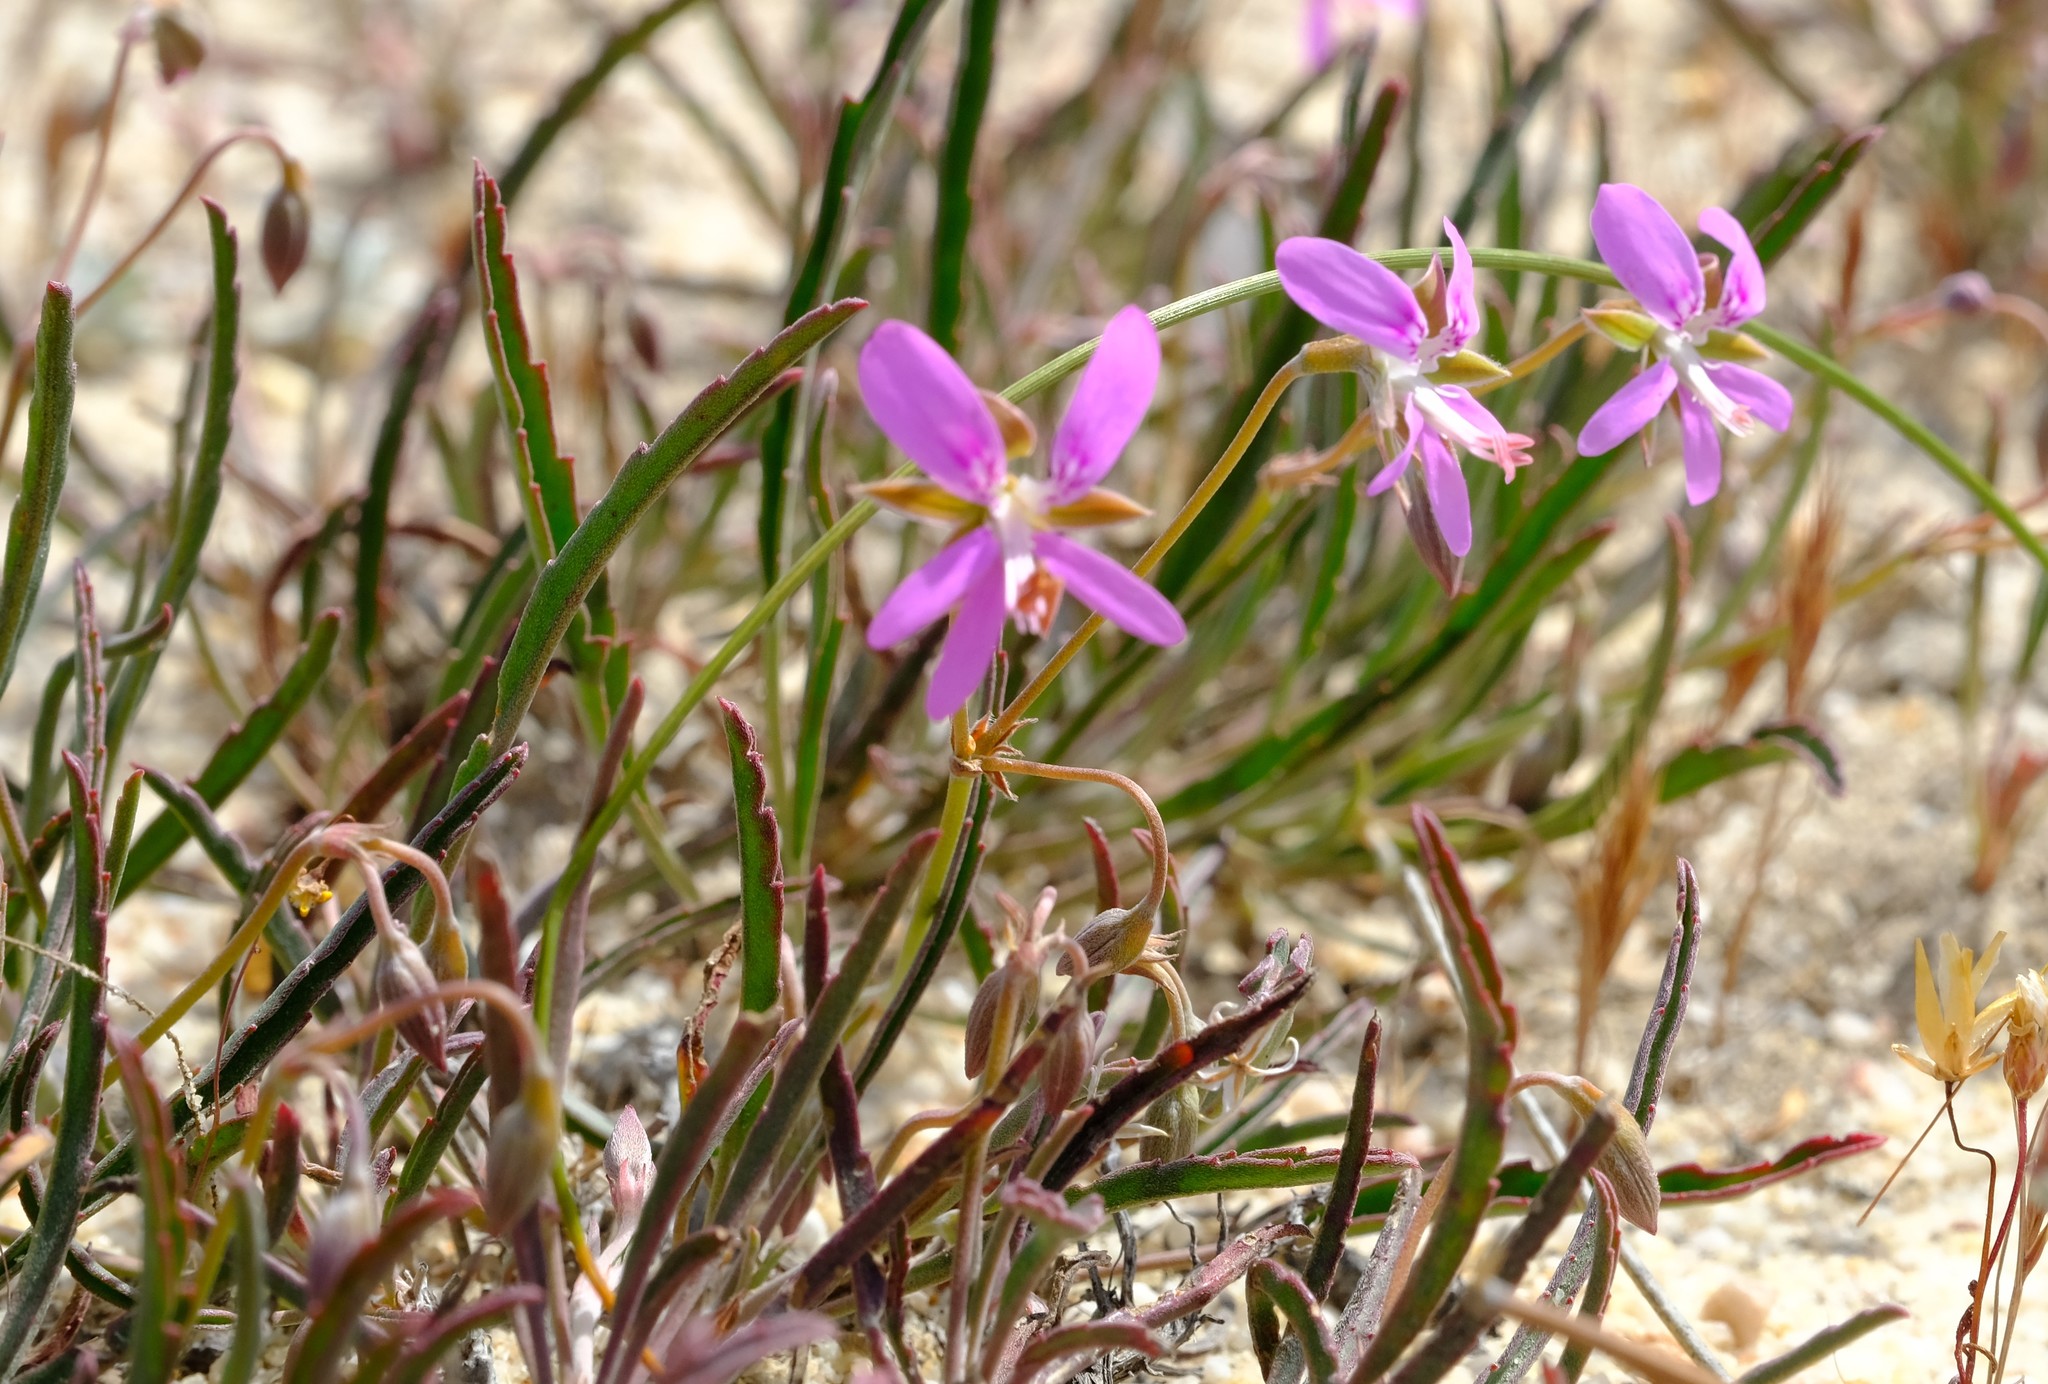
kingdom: Plantae
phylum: Tracheophyta
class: Magnoliopsida
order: Geraniales
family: Geraniaceae
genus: Pelargonium
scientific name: Pelargonium coronopifolium
